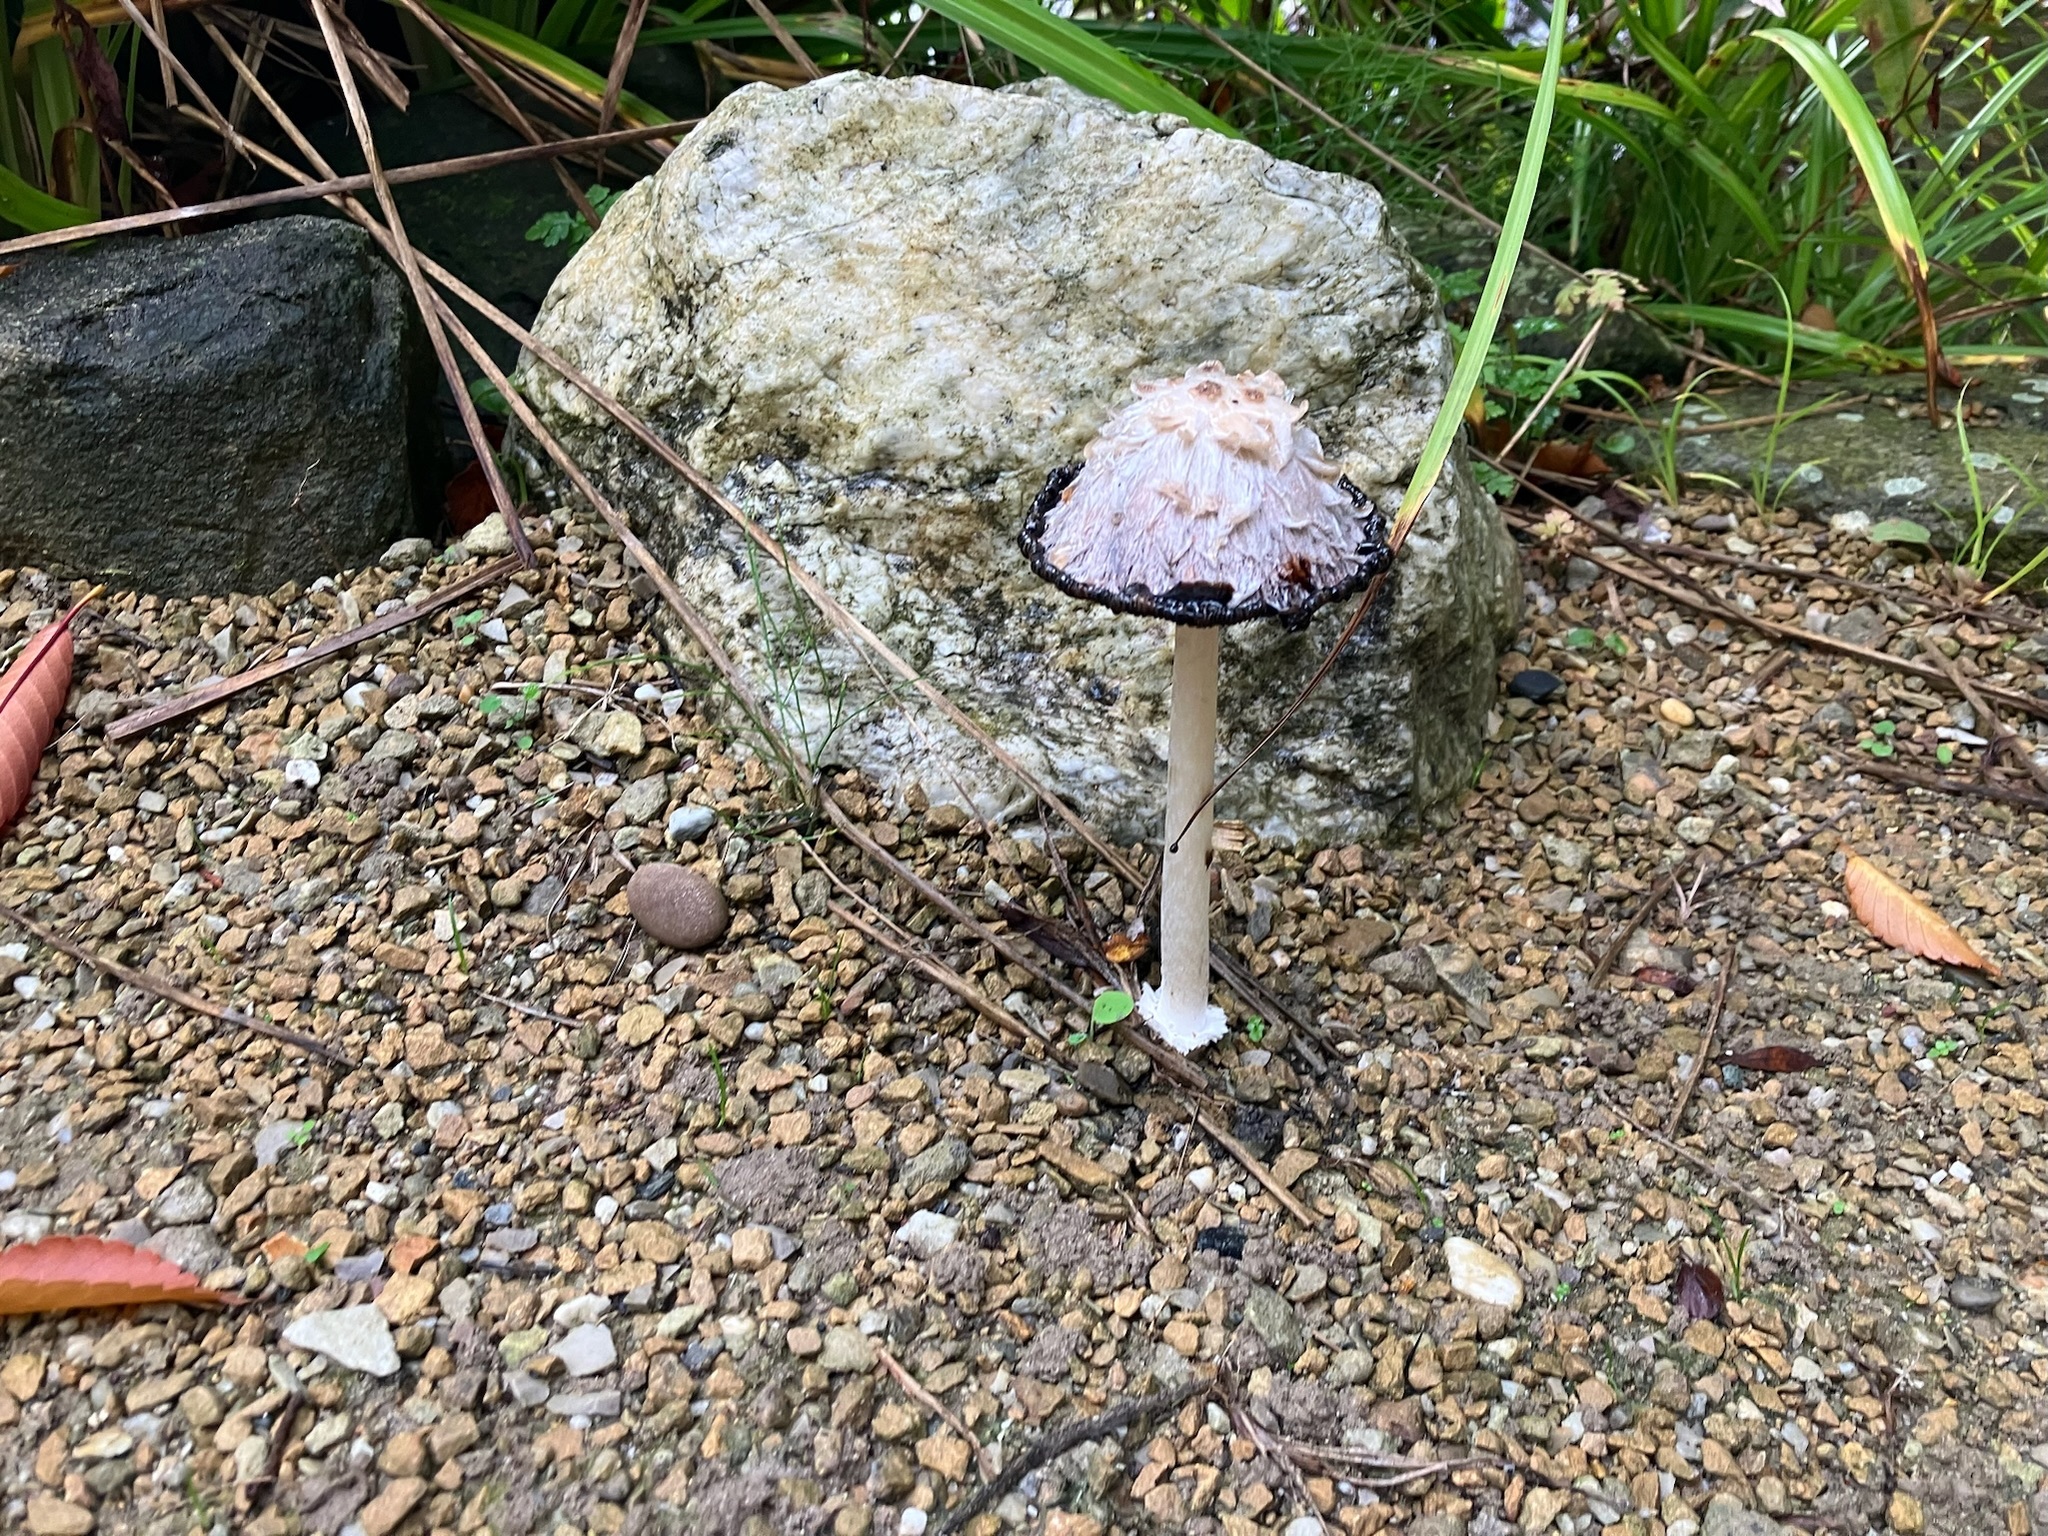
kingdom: Fungi
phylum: Basidiomycota
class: Agaricomycetes
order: Agaricales
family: Agaricaceae
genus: Coprinus
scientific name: Coprinus comatus
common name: Lawyer's wig
